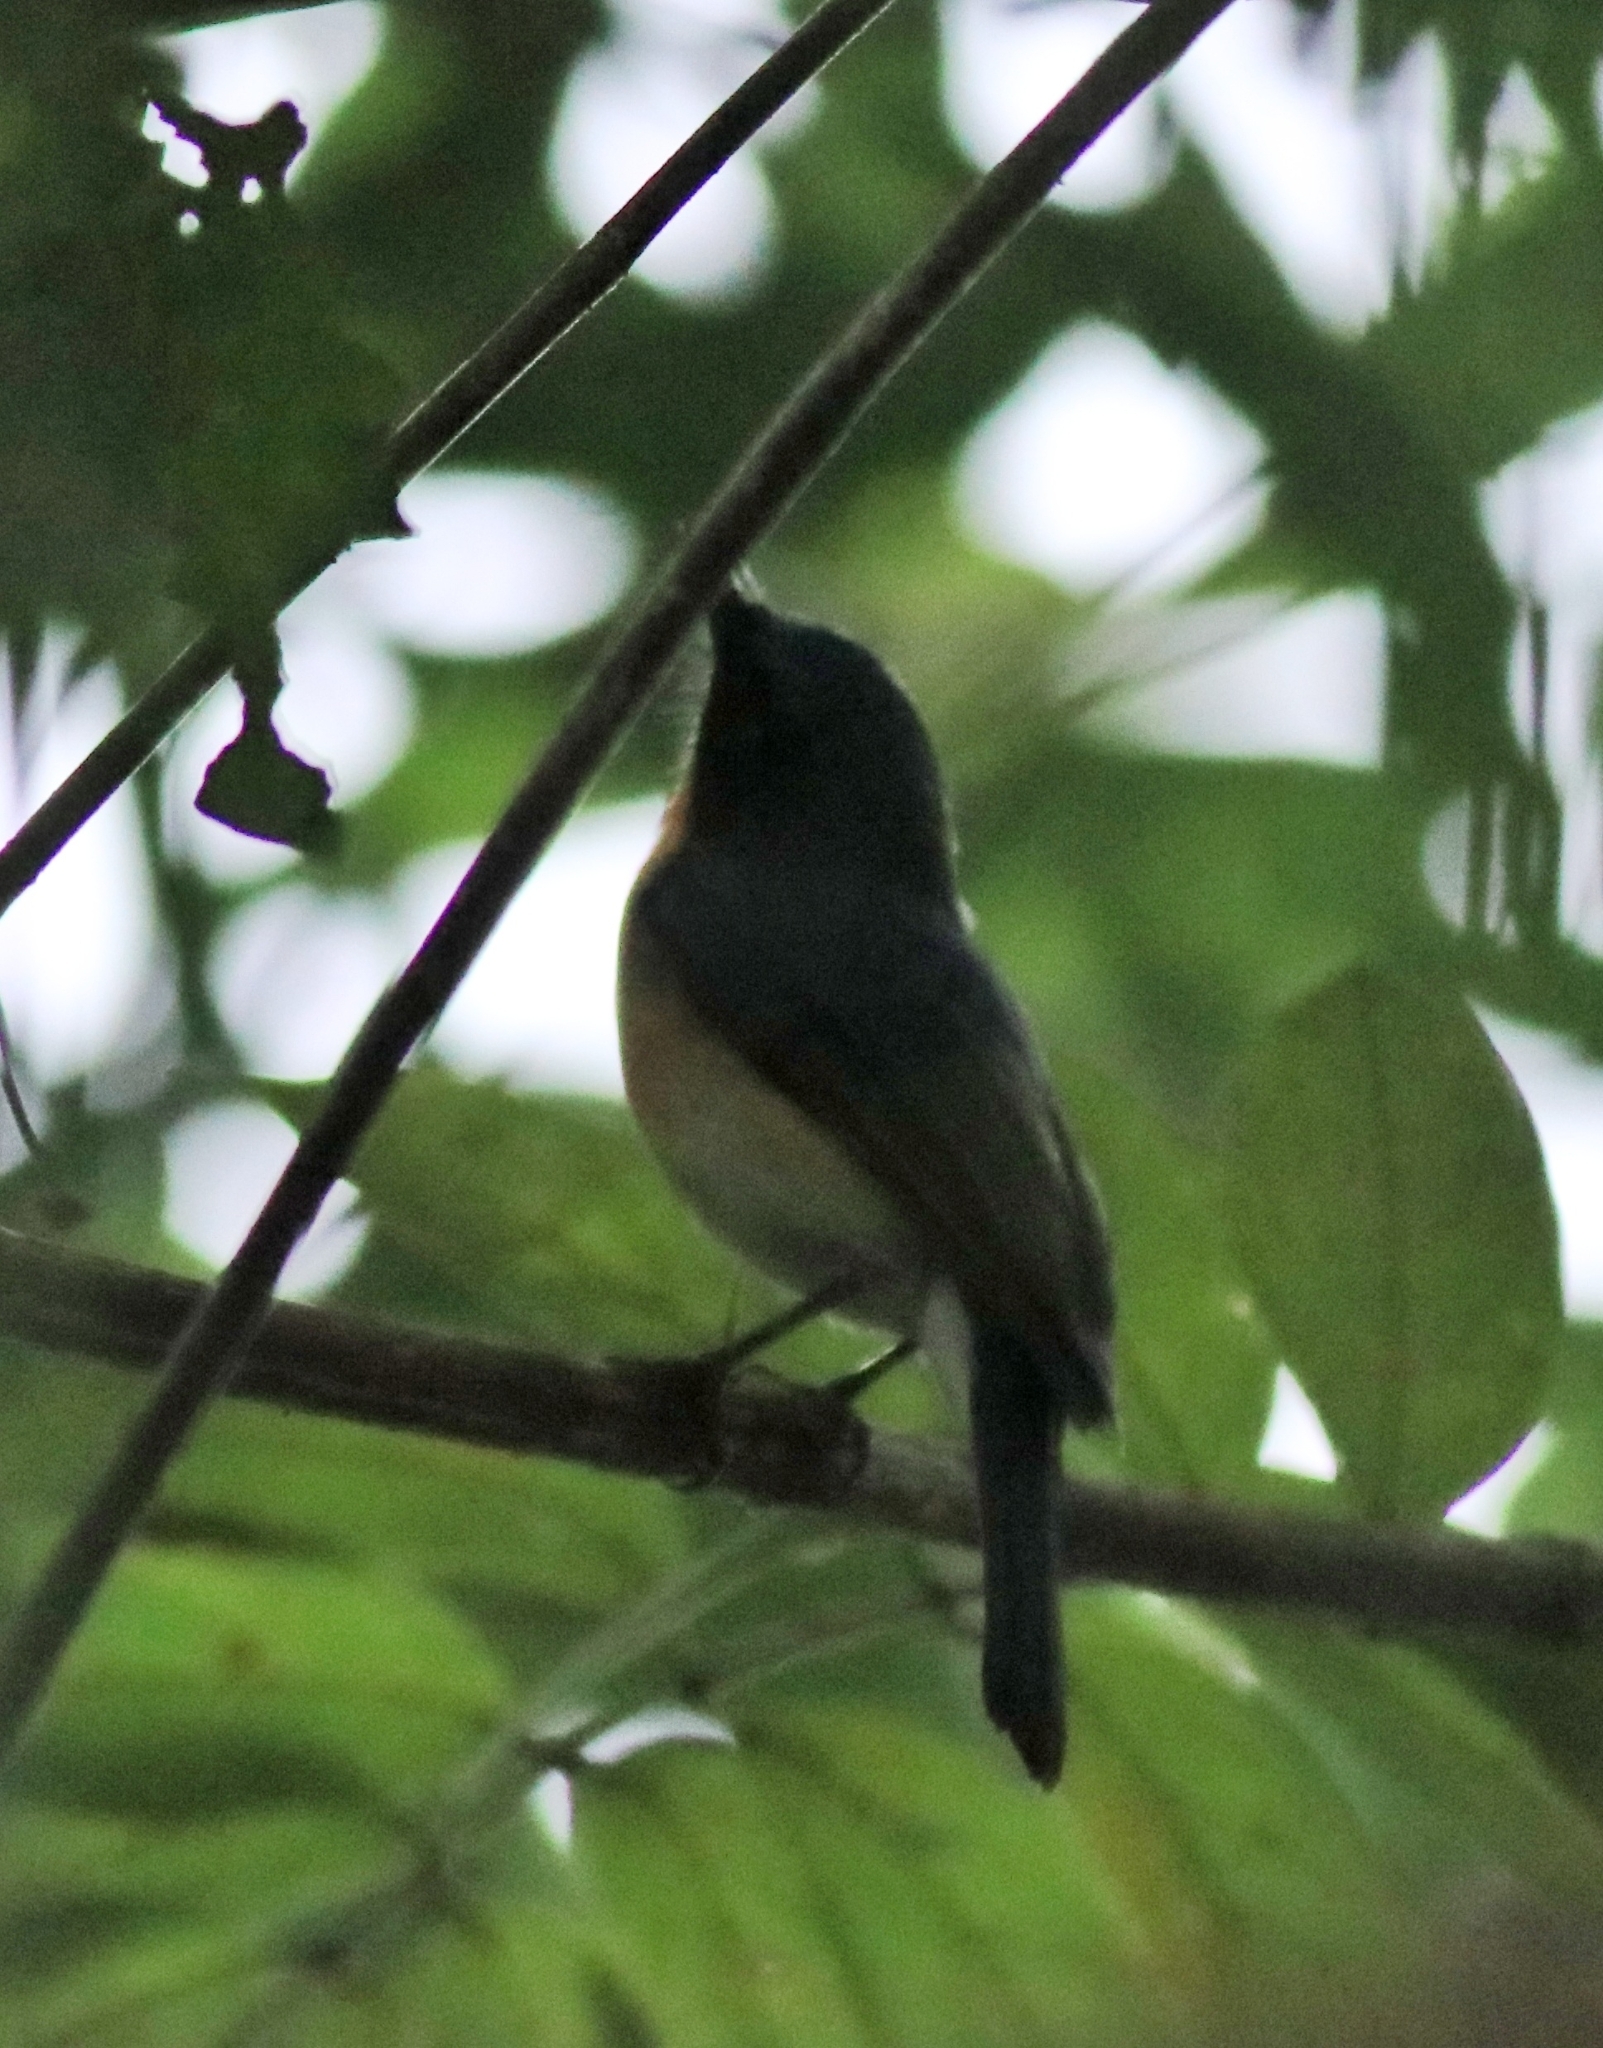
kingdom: Animalia
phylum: Chordata
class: Aves
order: Passeriformes
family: Muscicapidae
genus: Cyornis
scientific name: Cyornis tickelliae
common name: Tickell's blue flycatcher
